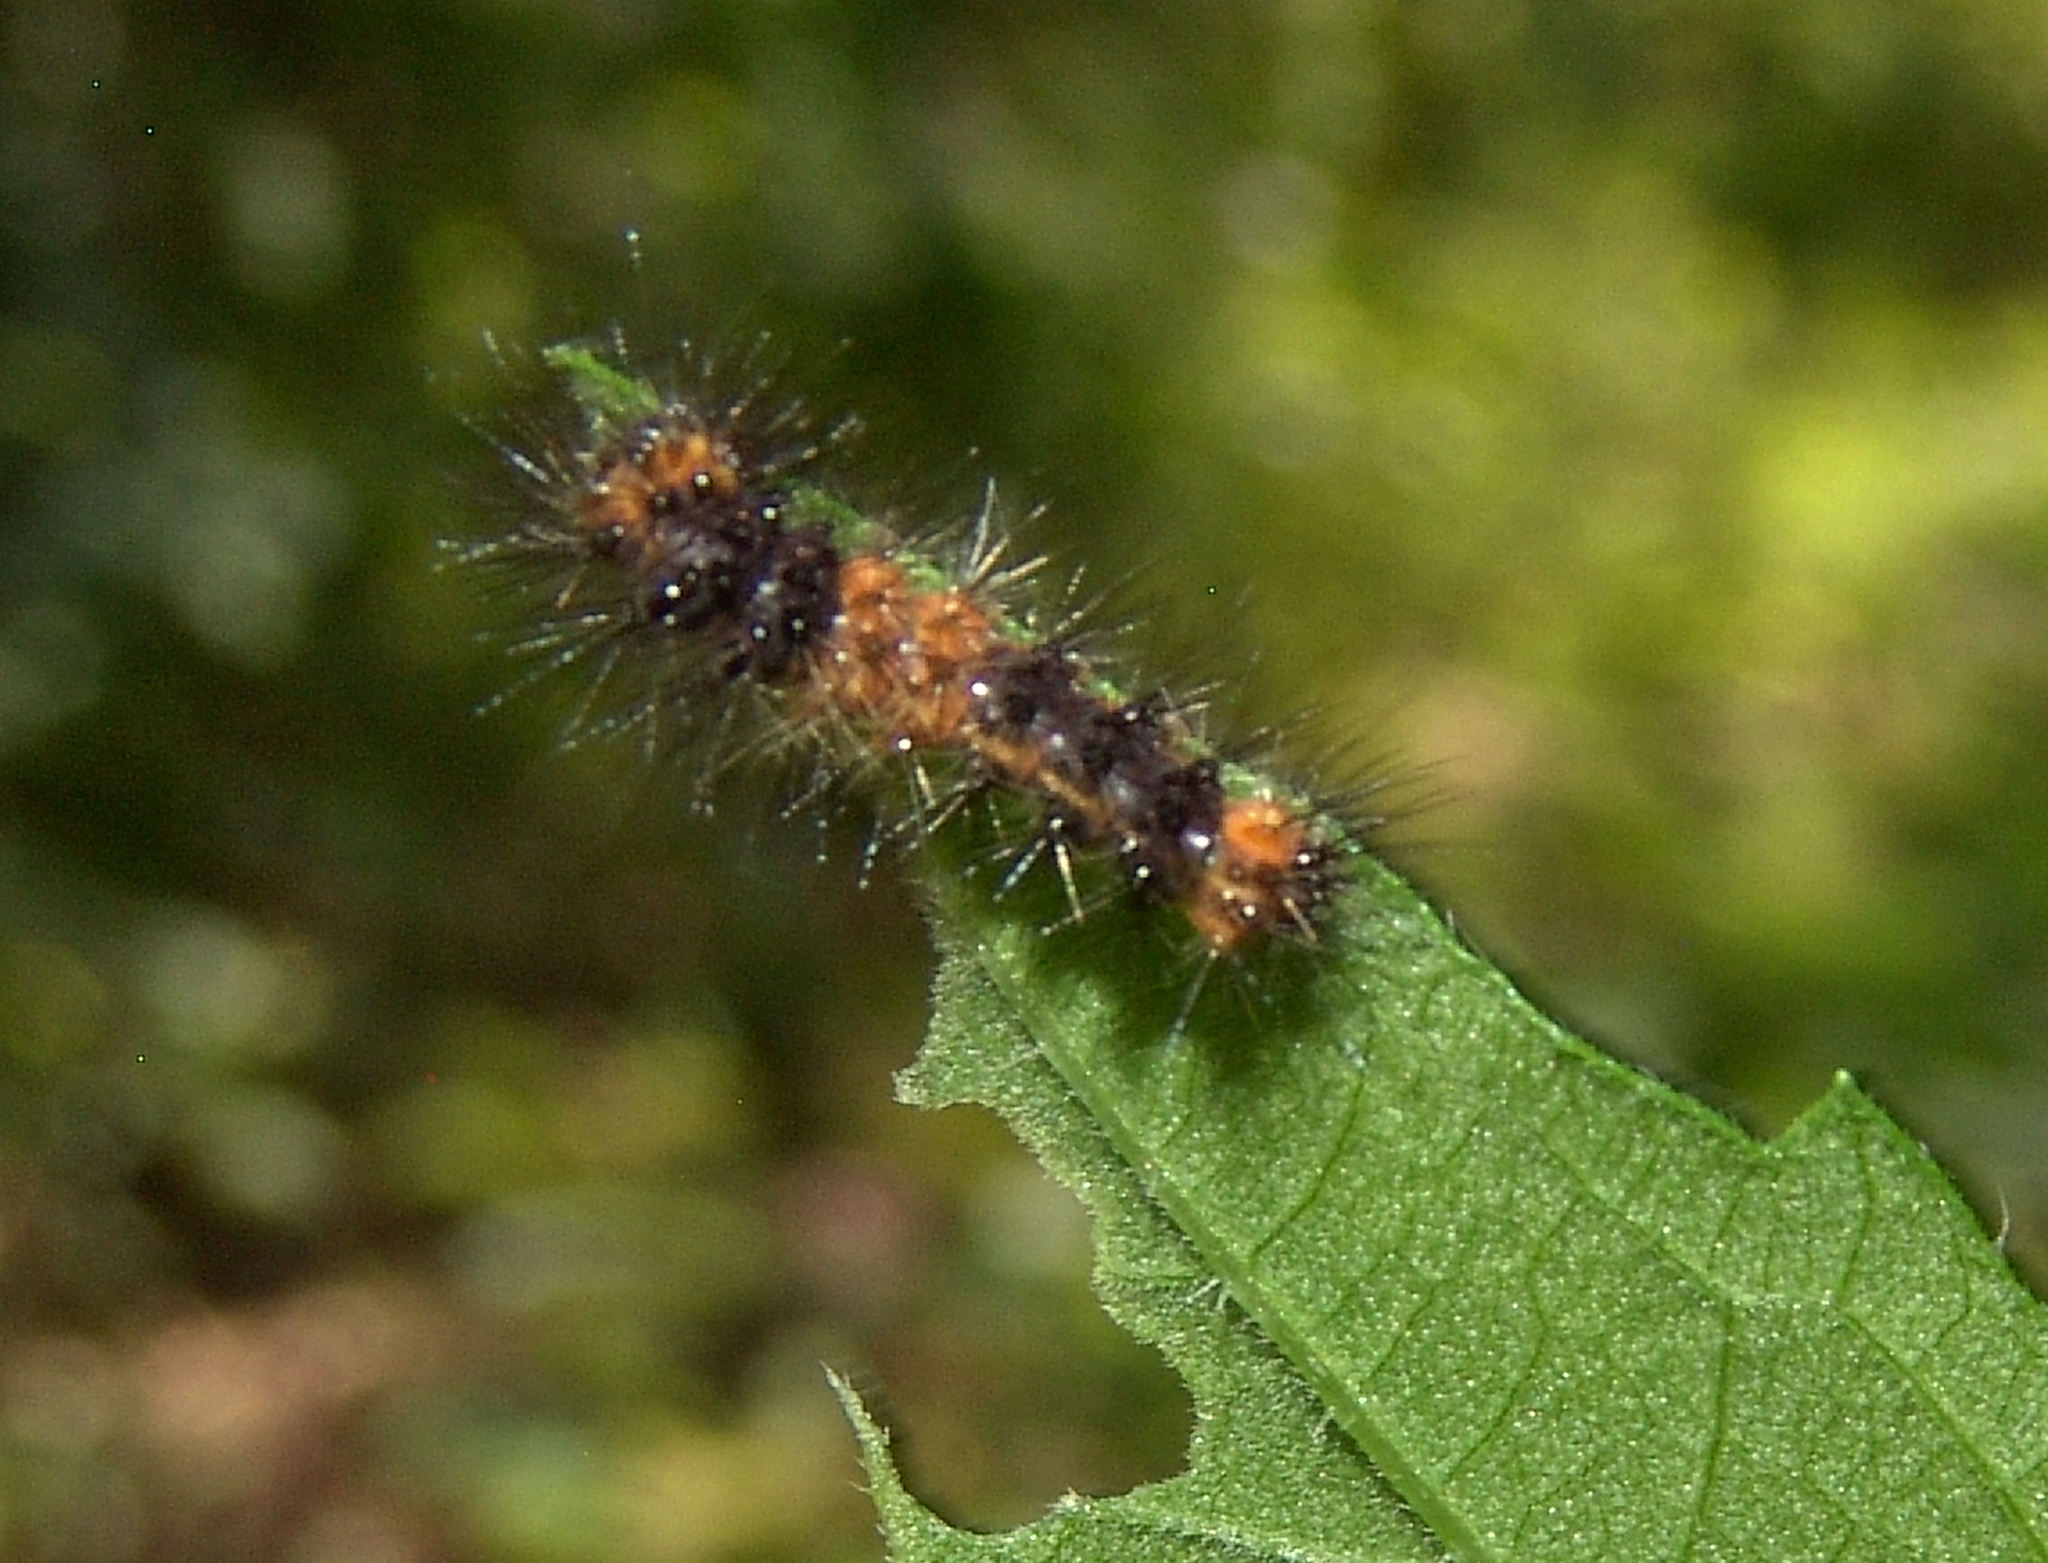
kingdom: Animalia
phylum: Arthropoda
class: Insecta
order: Lepidoptera
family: Erebidae
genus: Hypercompe
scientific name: Hypercompe scribonia
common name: Giant leopard moth
